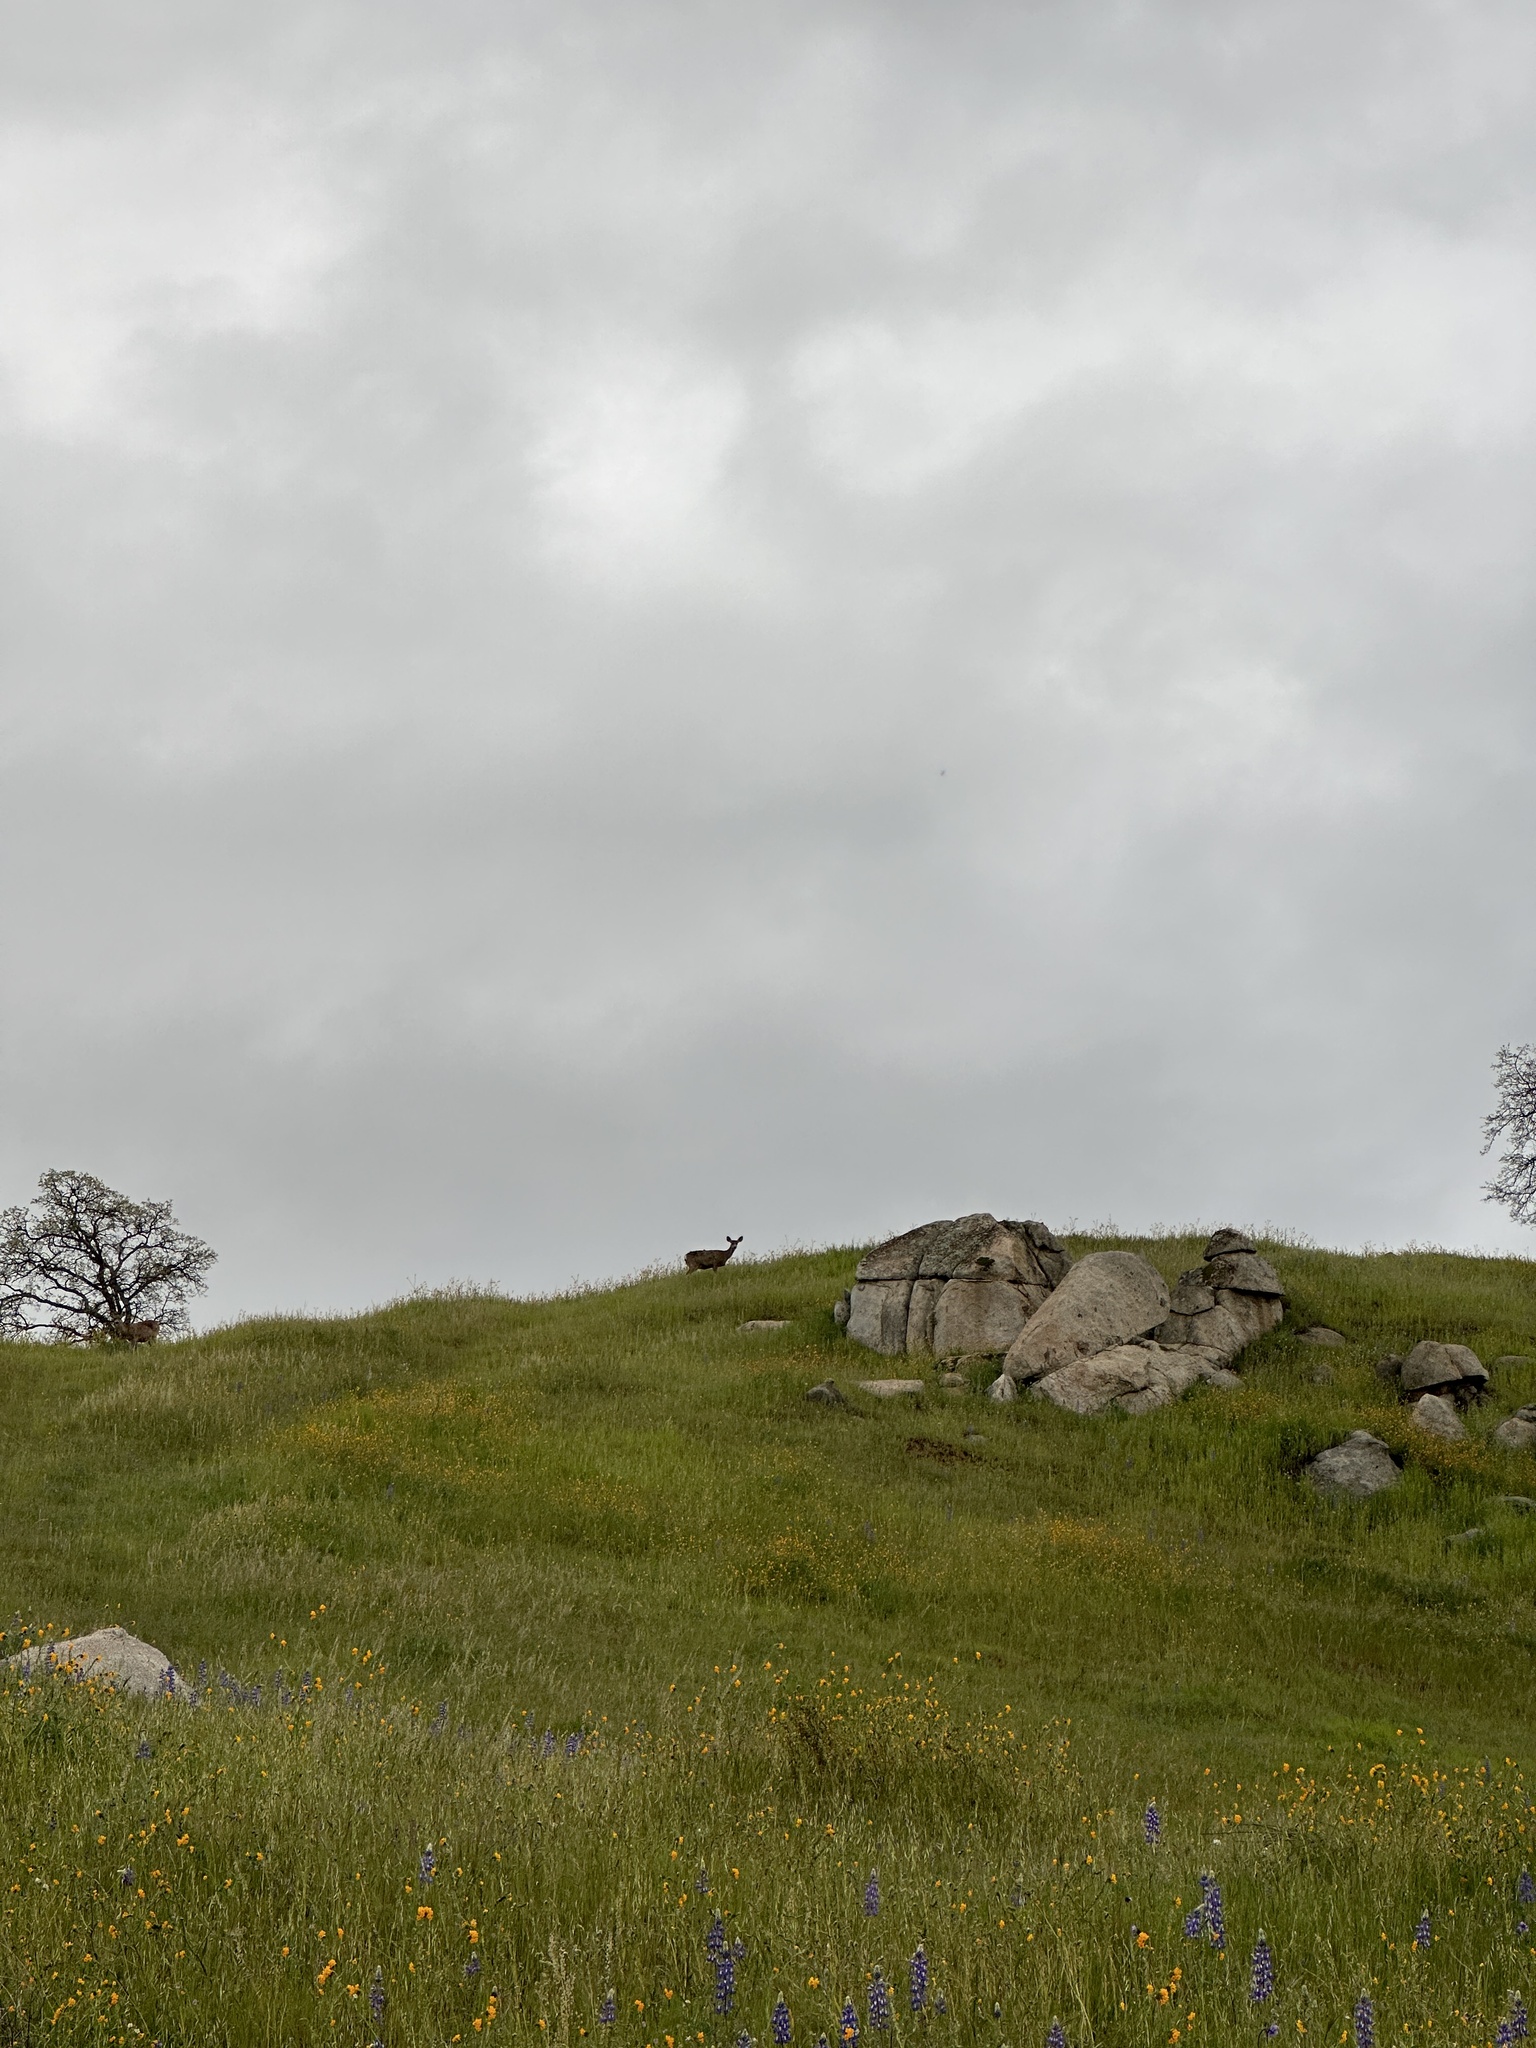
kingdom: Animalia
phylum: Chordata
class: Mammalia
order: Artiodactyla
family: Cervidae
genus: Odocoileus
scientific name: Odocoileus hemionus
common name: Mule deer
